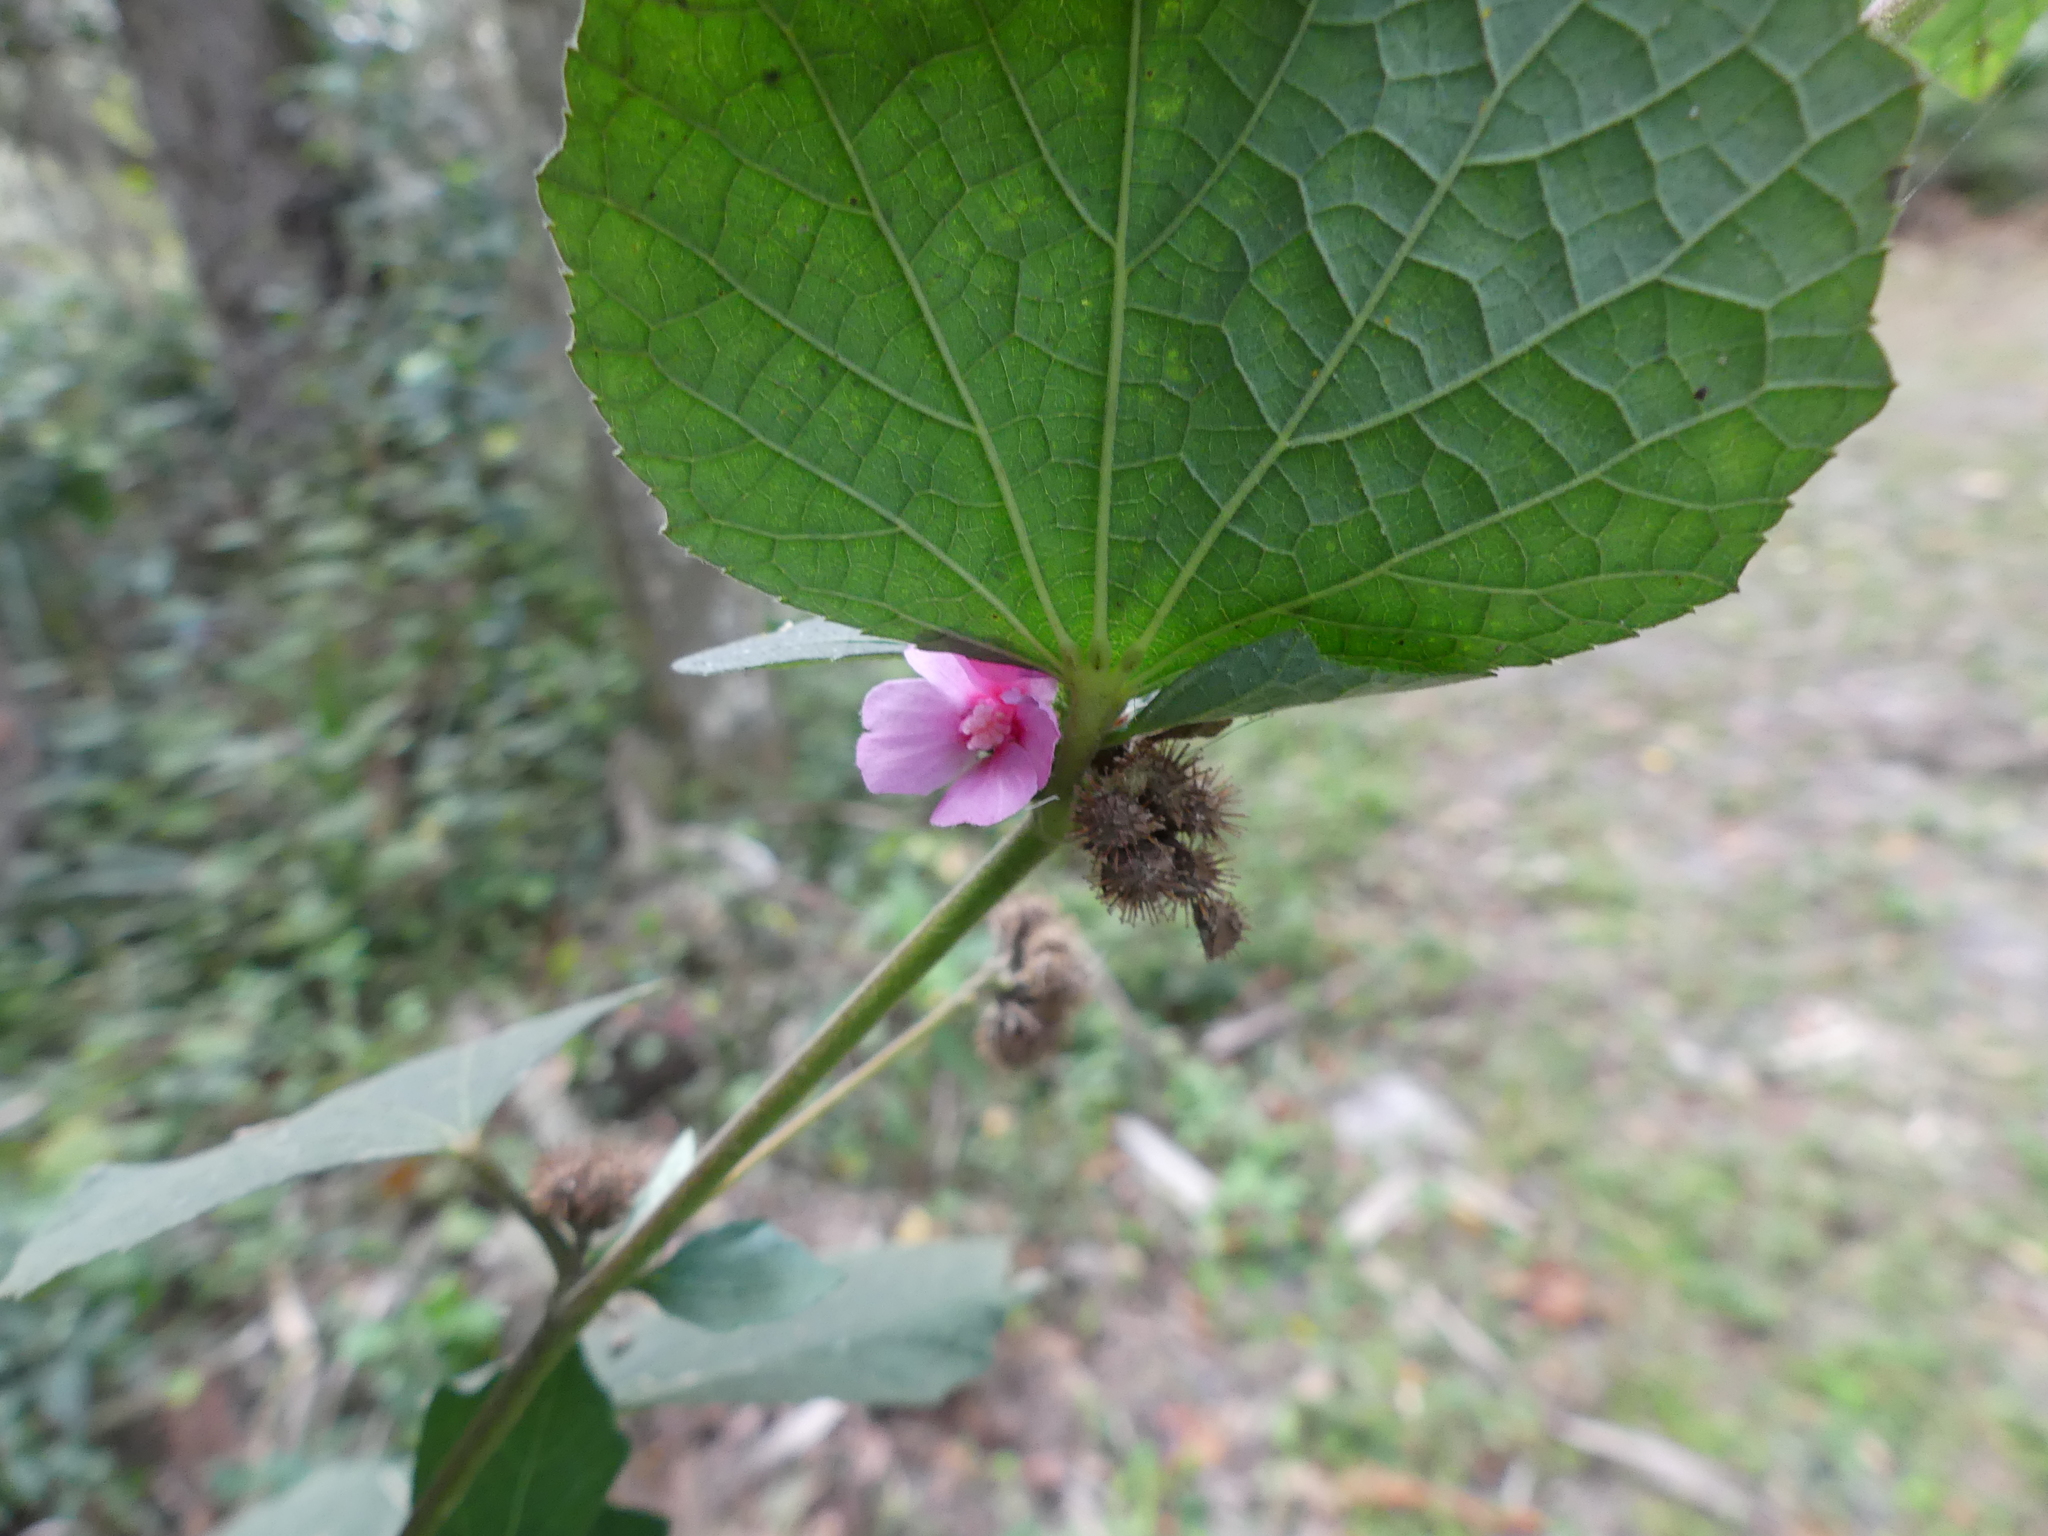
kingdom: Plantae
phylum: Tracheophyta
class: Magnoliopsida
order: Malvales
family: Malvaceae
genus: Urena
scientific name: Urena lobata
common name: Caesarweed
